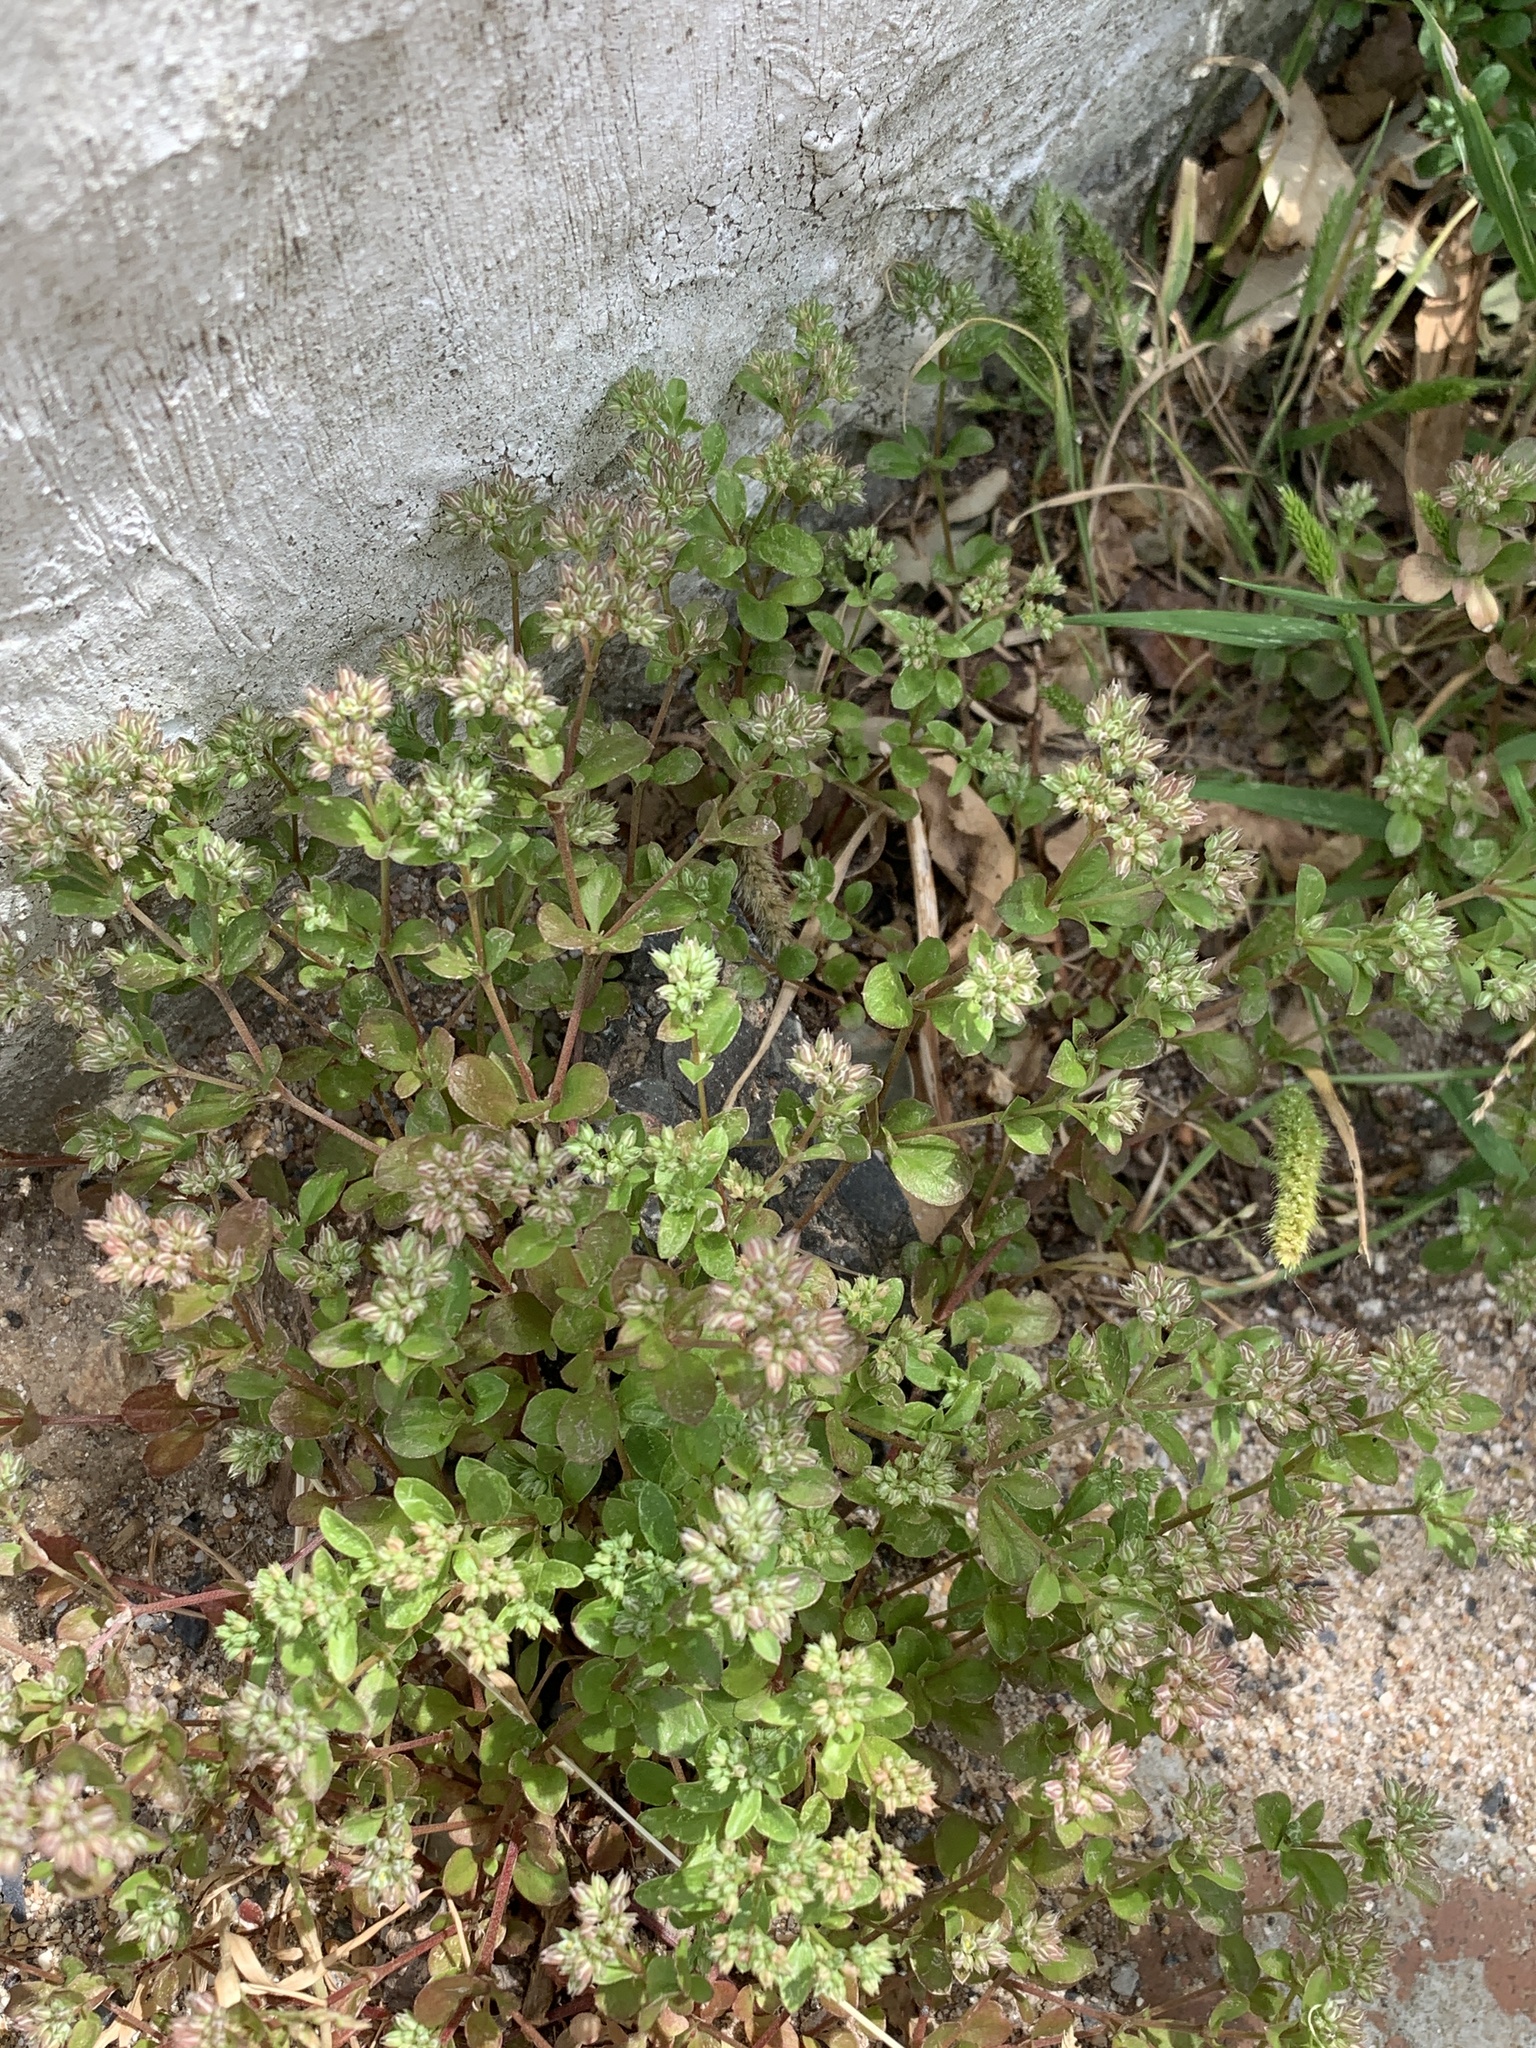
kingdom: Plantae
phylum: Tracheophyta
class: Magnoliopsida
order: Caryophyllales
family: Caryophyllaceae
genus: Polycarpon
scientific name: Polycarpon tetraphyllum
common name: Four-leaved all-seed
